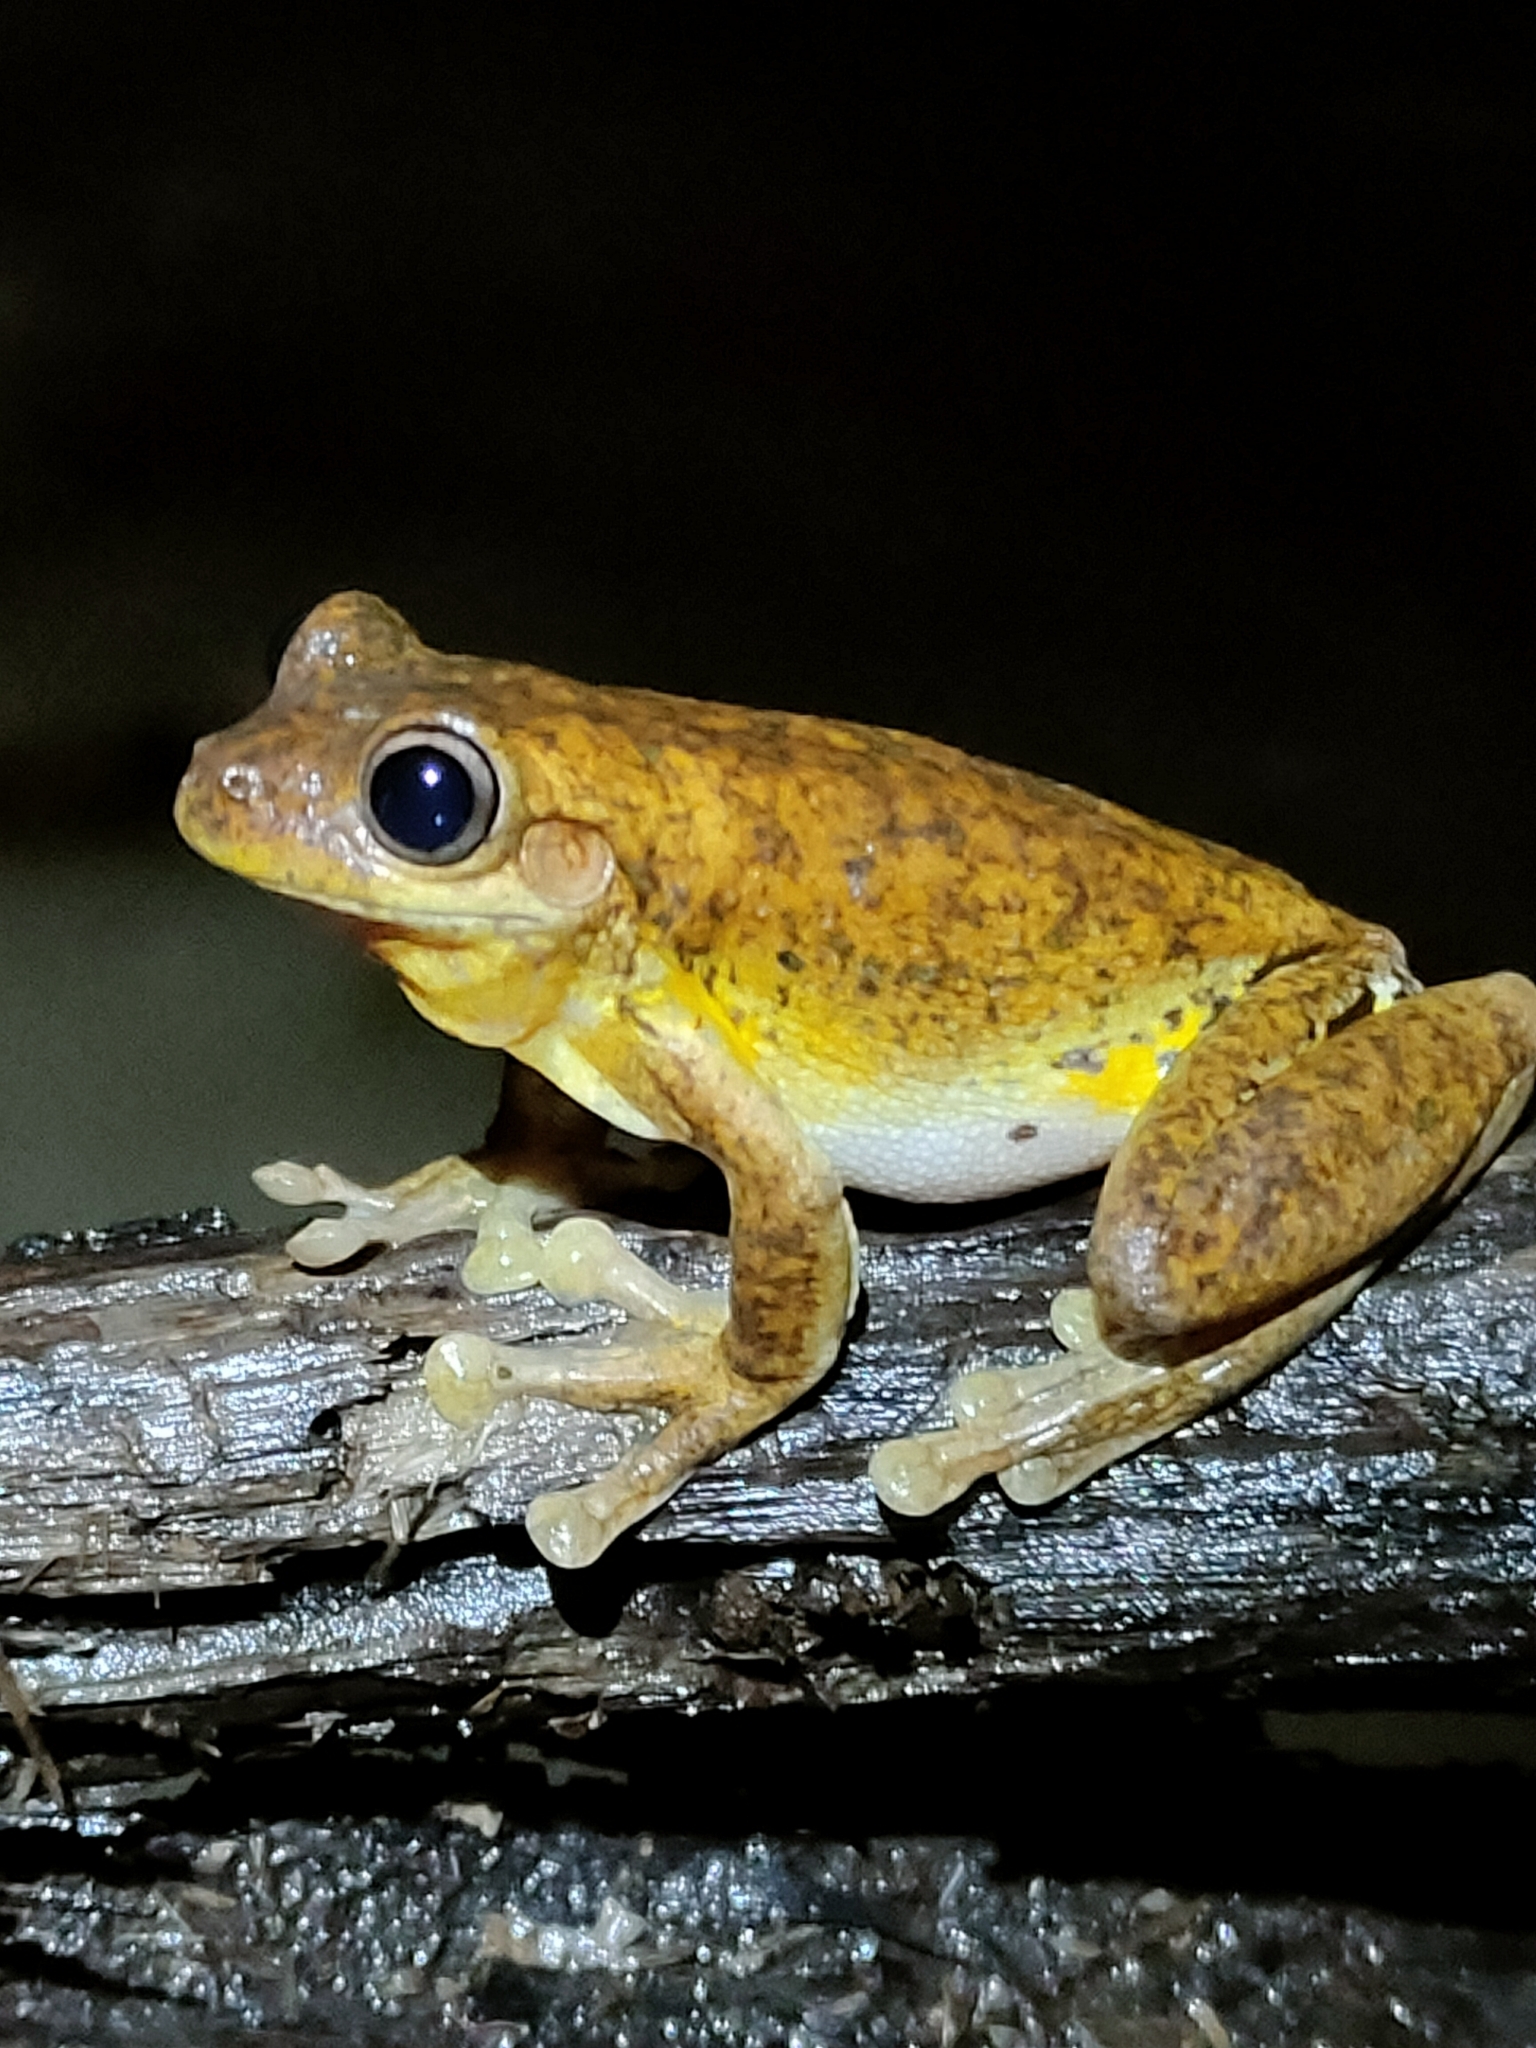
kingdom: Animalia
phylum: Chordata
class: Amphibia
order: Anura
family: Pelodryadidae
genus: Litoria
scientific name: Litoria tyleri
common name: Laughing tree frog
